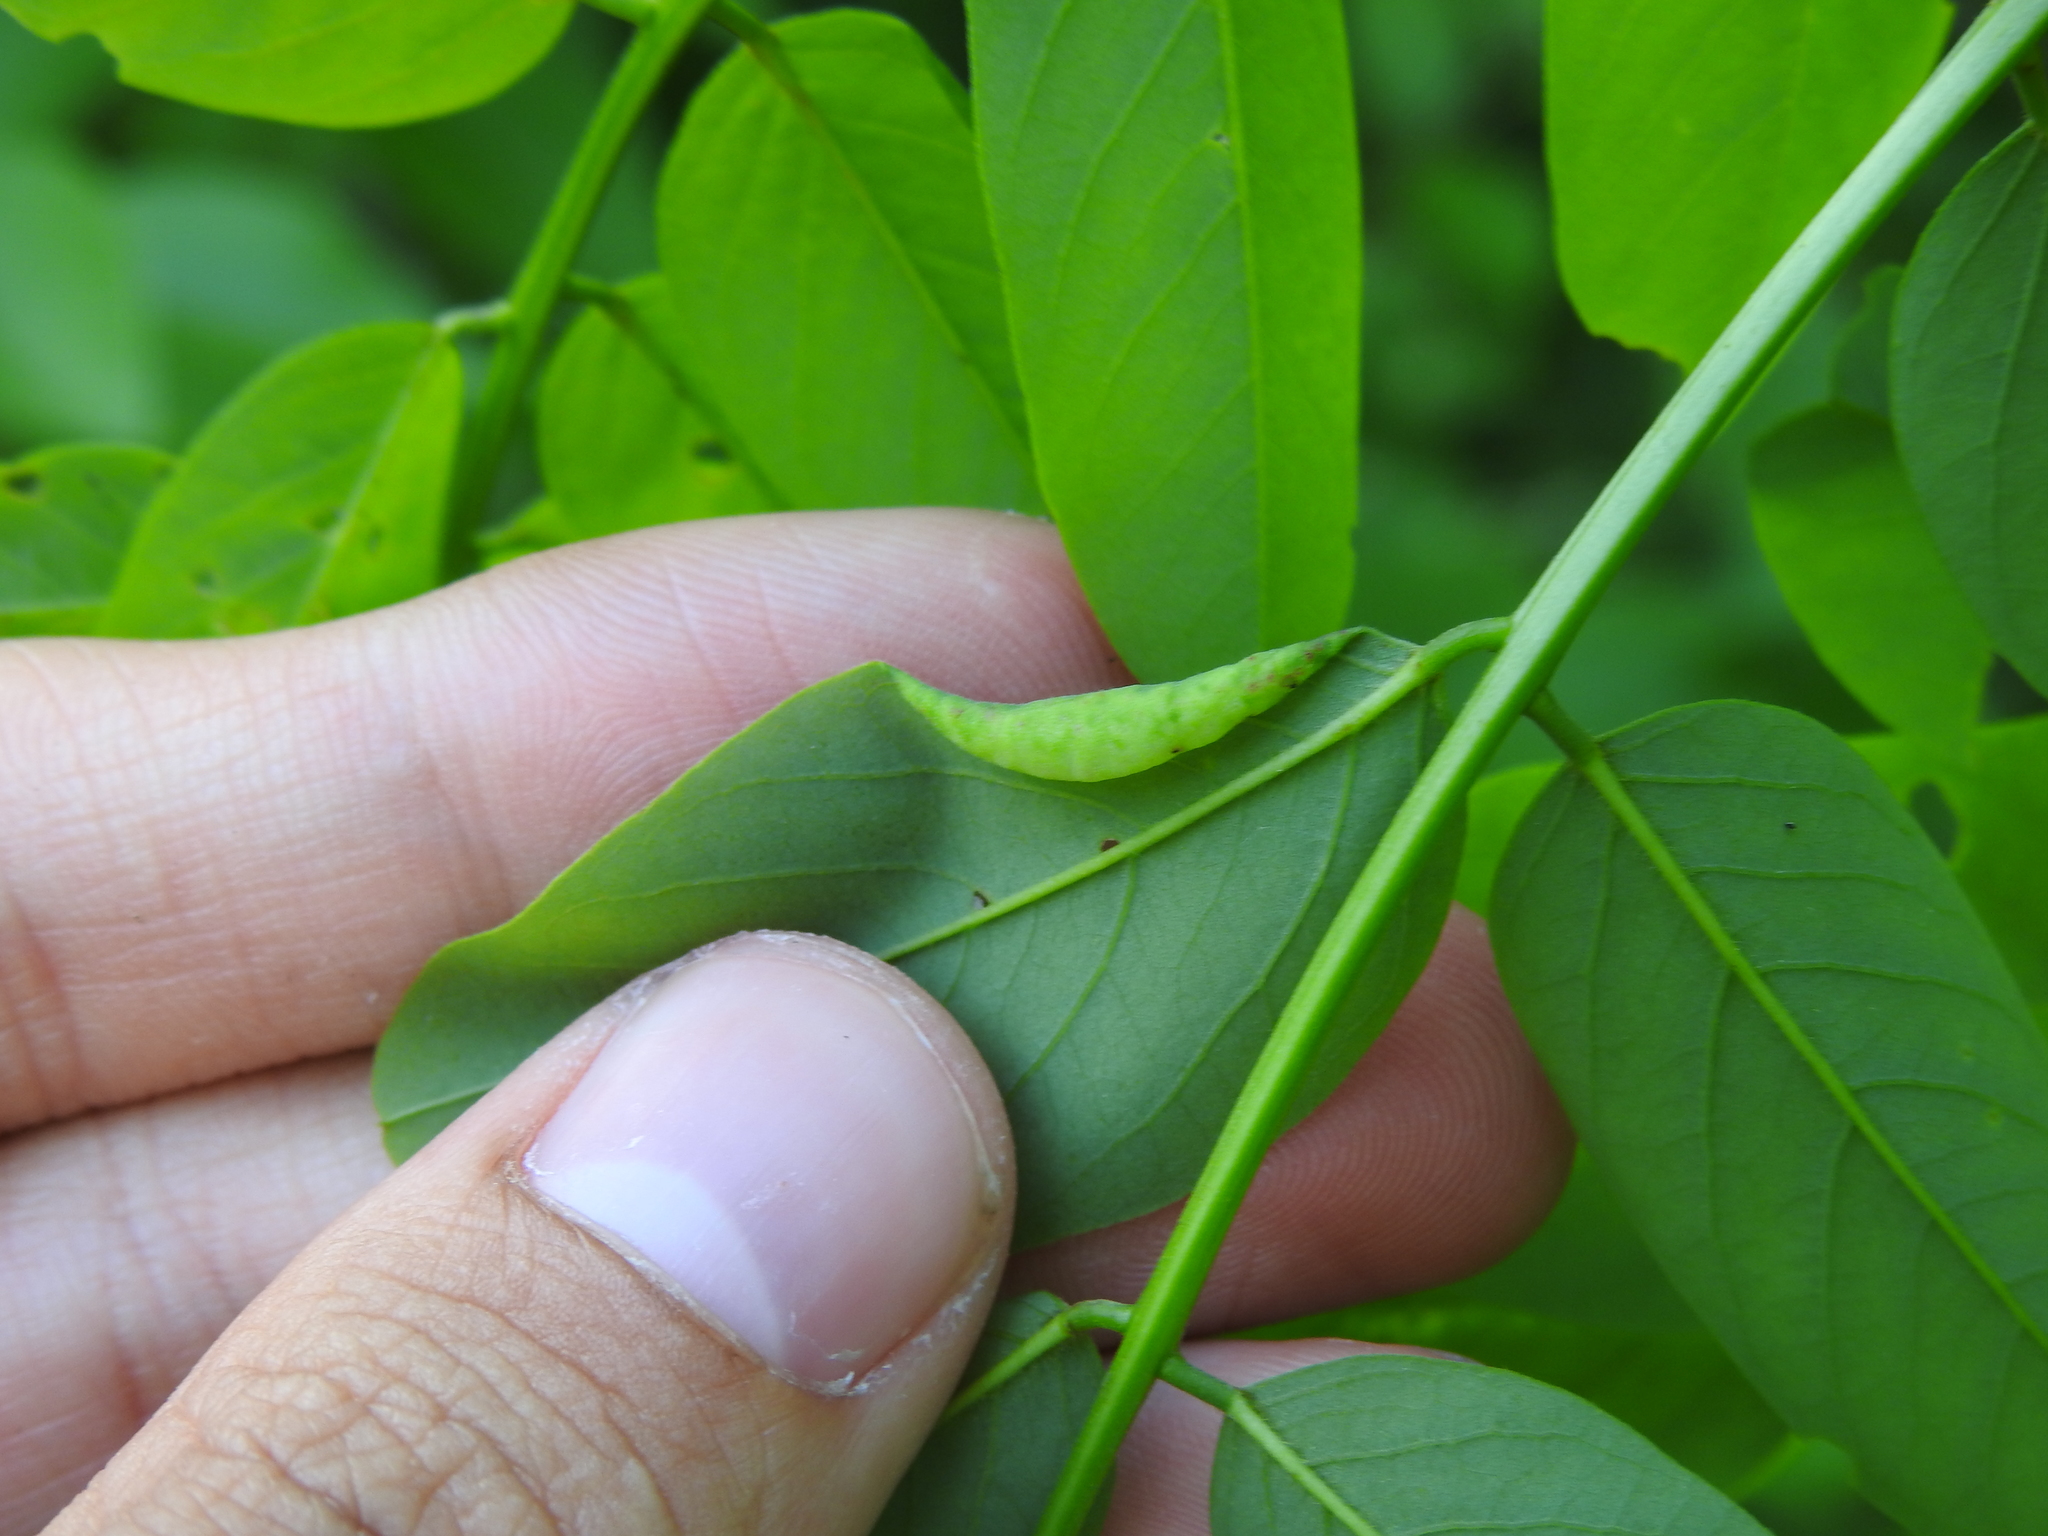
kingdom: Animalia
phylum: Arthropoda
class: Insecta
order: Diptera
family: Cecidomyiidae
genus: Obolodiplosis
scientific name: Obolodiplosis robiniae
